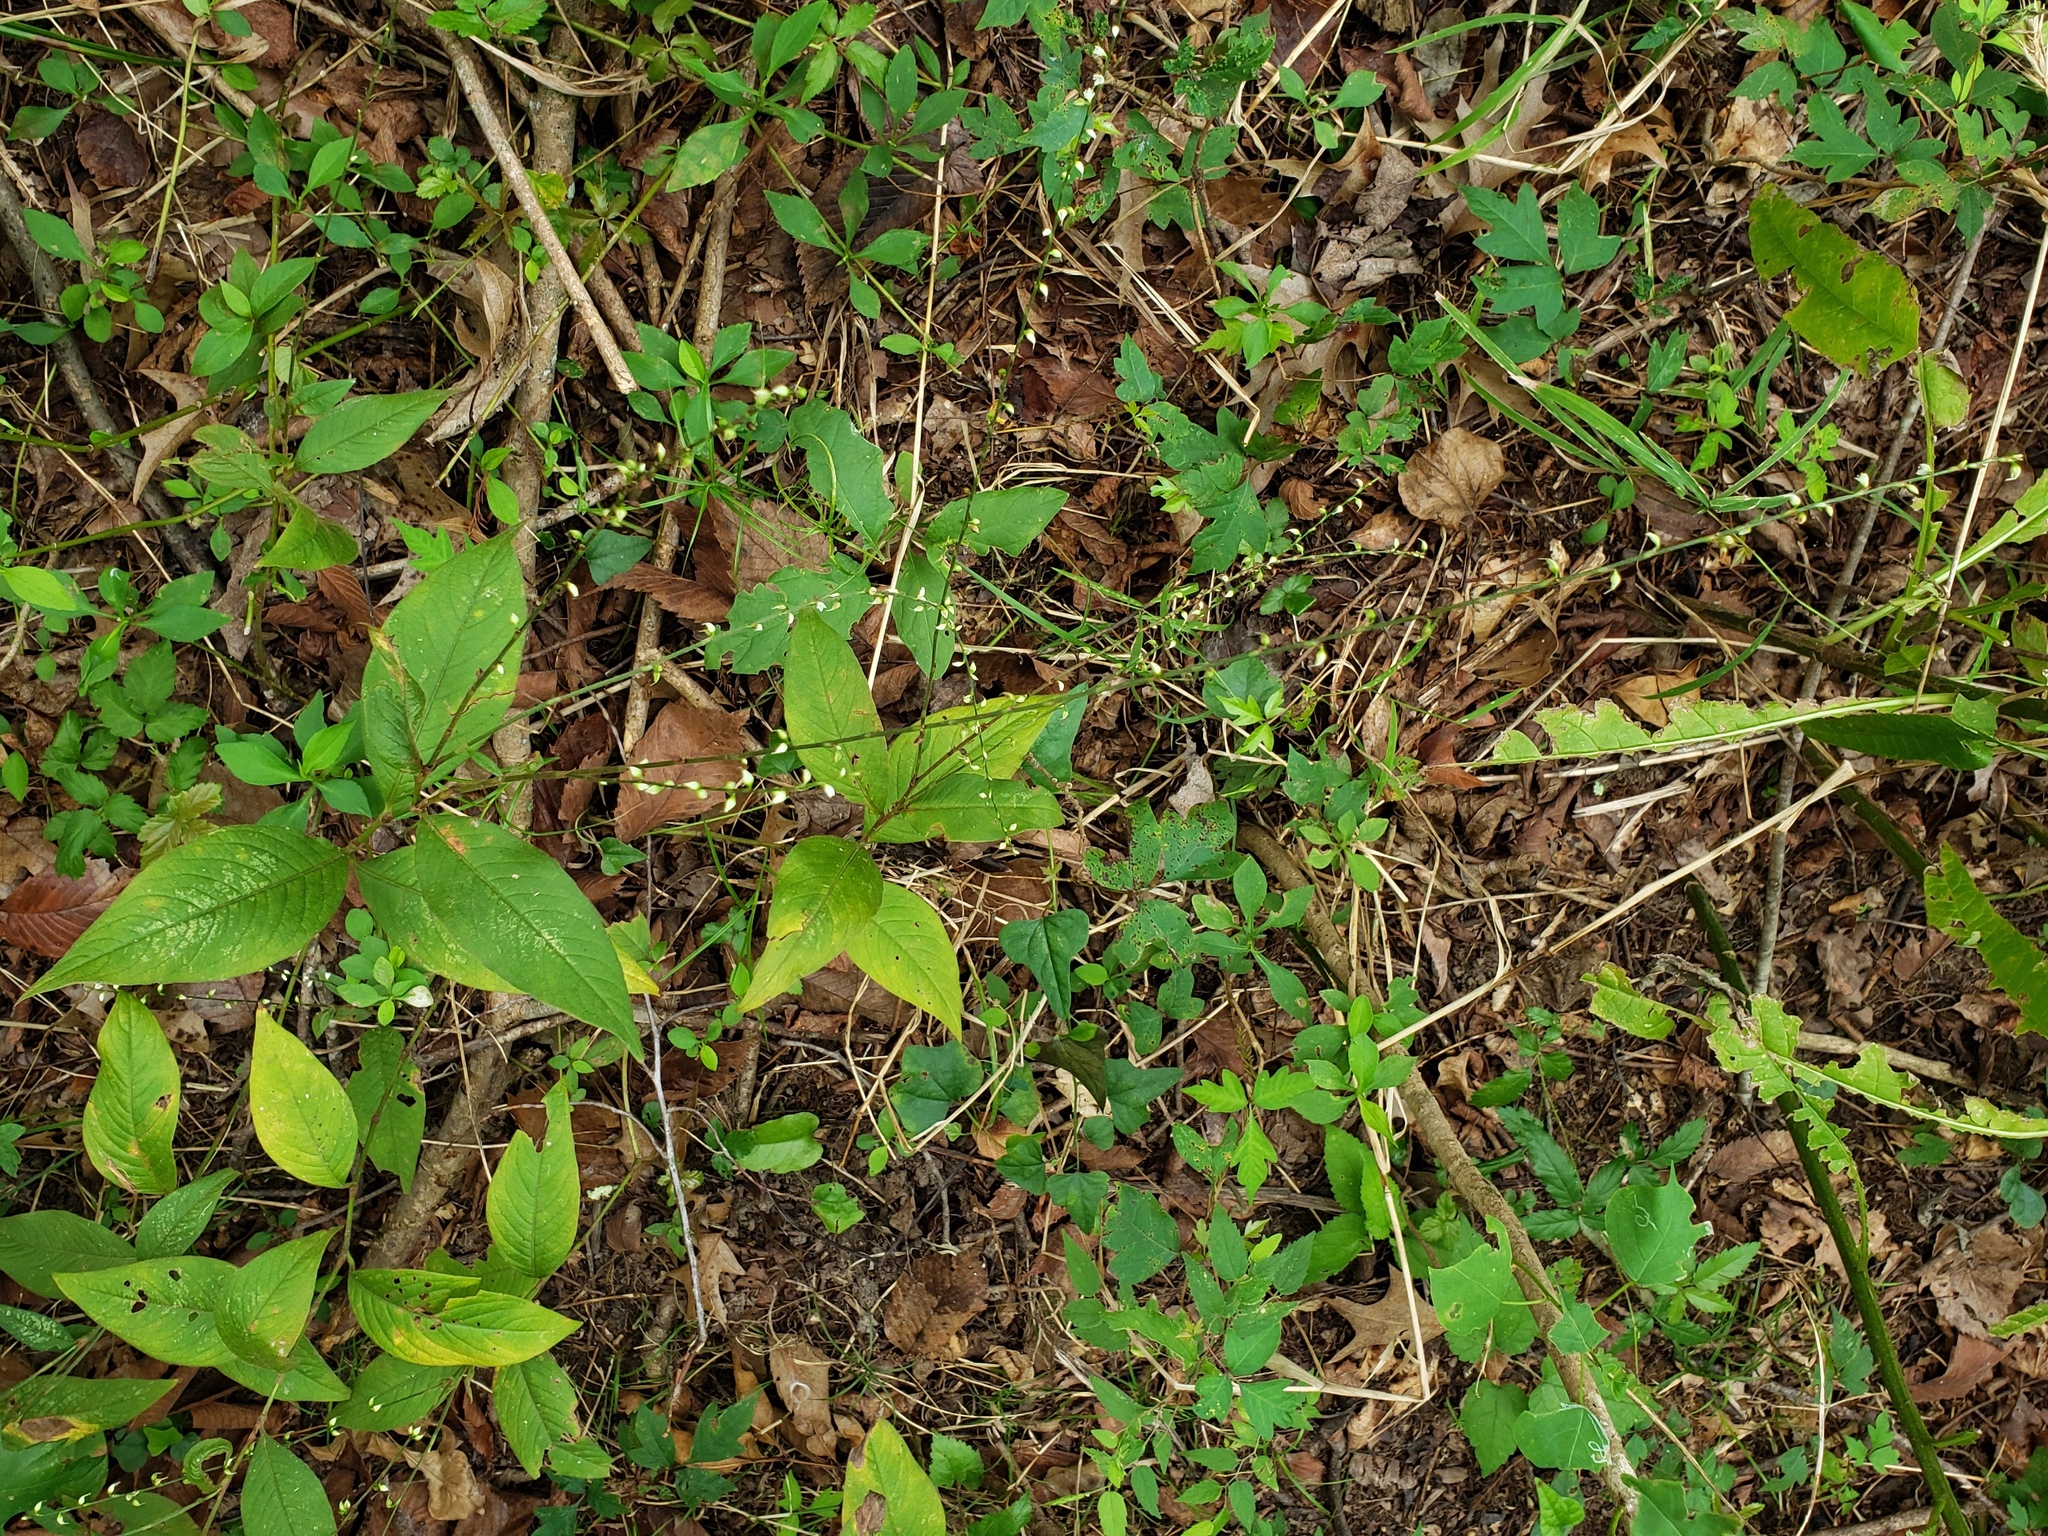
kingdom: Plantae
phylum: Tracheophyta
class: Magnoliopsida
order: Caryophyllales
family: Polygonaceae
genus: Persicaria
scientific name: Persicaria virginiana
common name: Jumpseed
